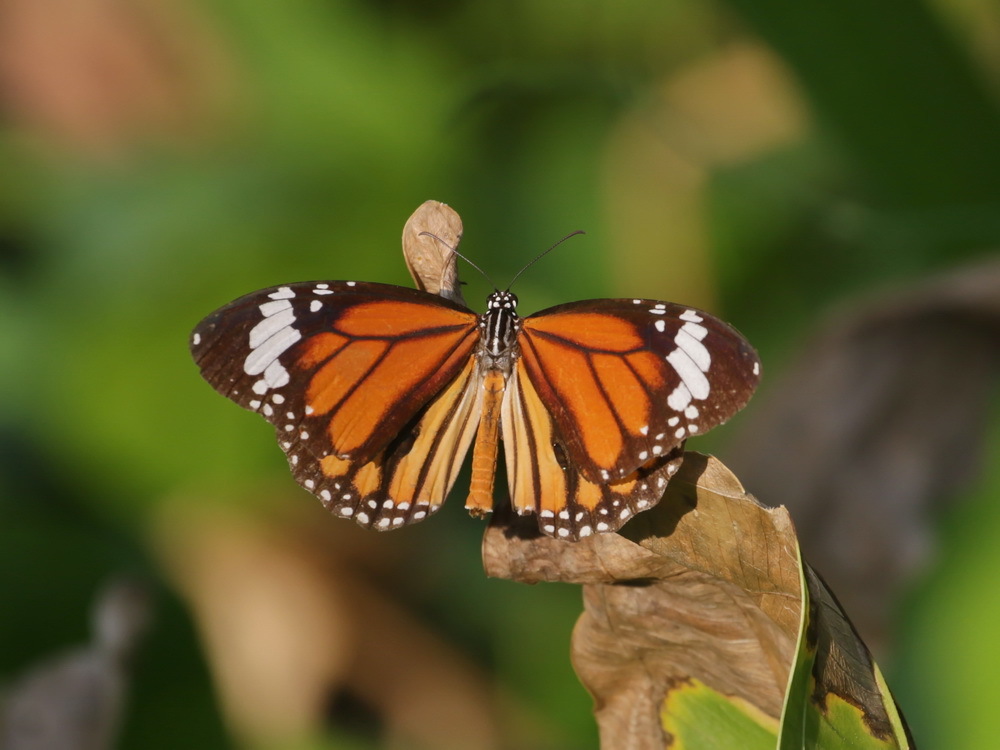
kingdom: Animalia
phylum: Arthropoda
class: Insecta
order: Lepidoptera
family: Nymphalidae
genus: Danaus
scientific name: Danaus genutia
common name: Common tiger butterfly
